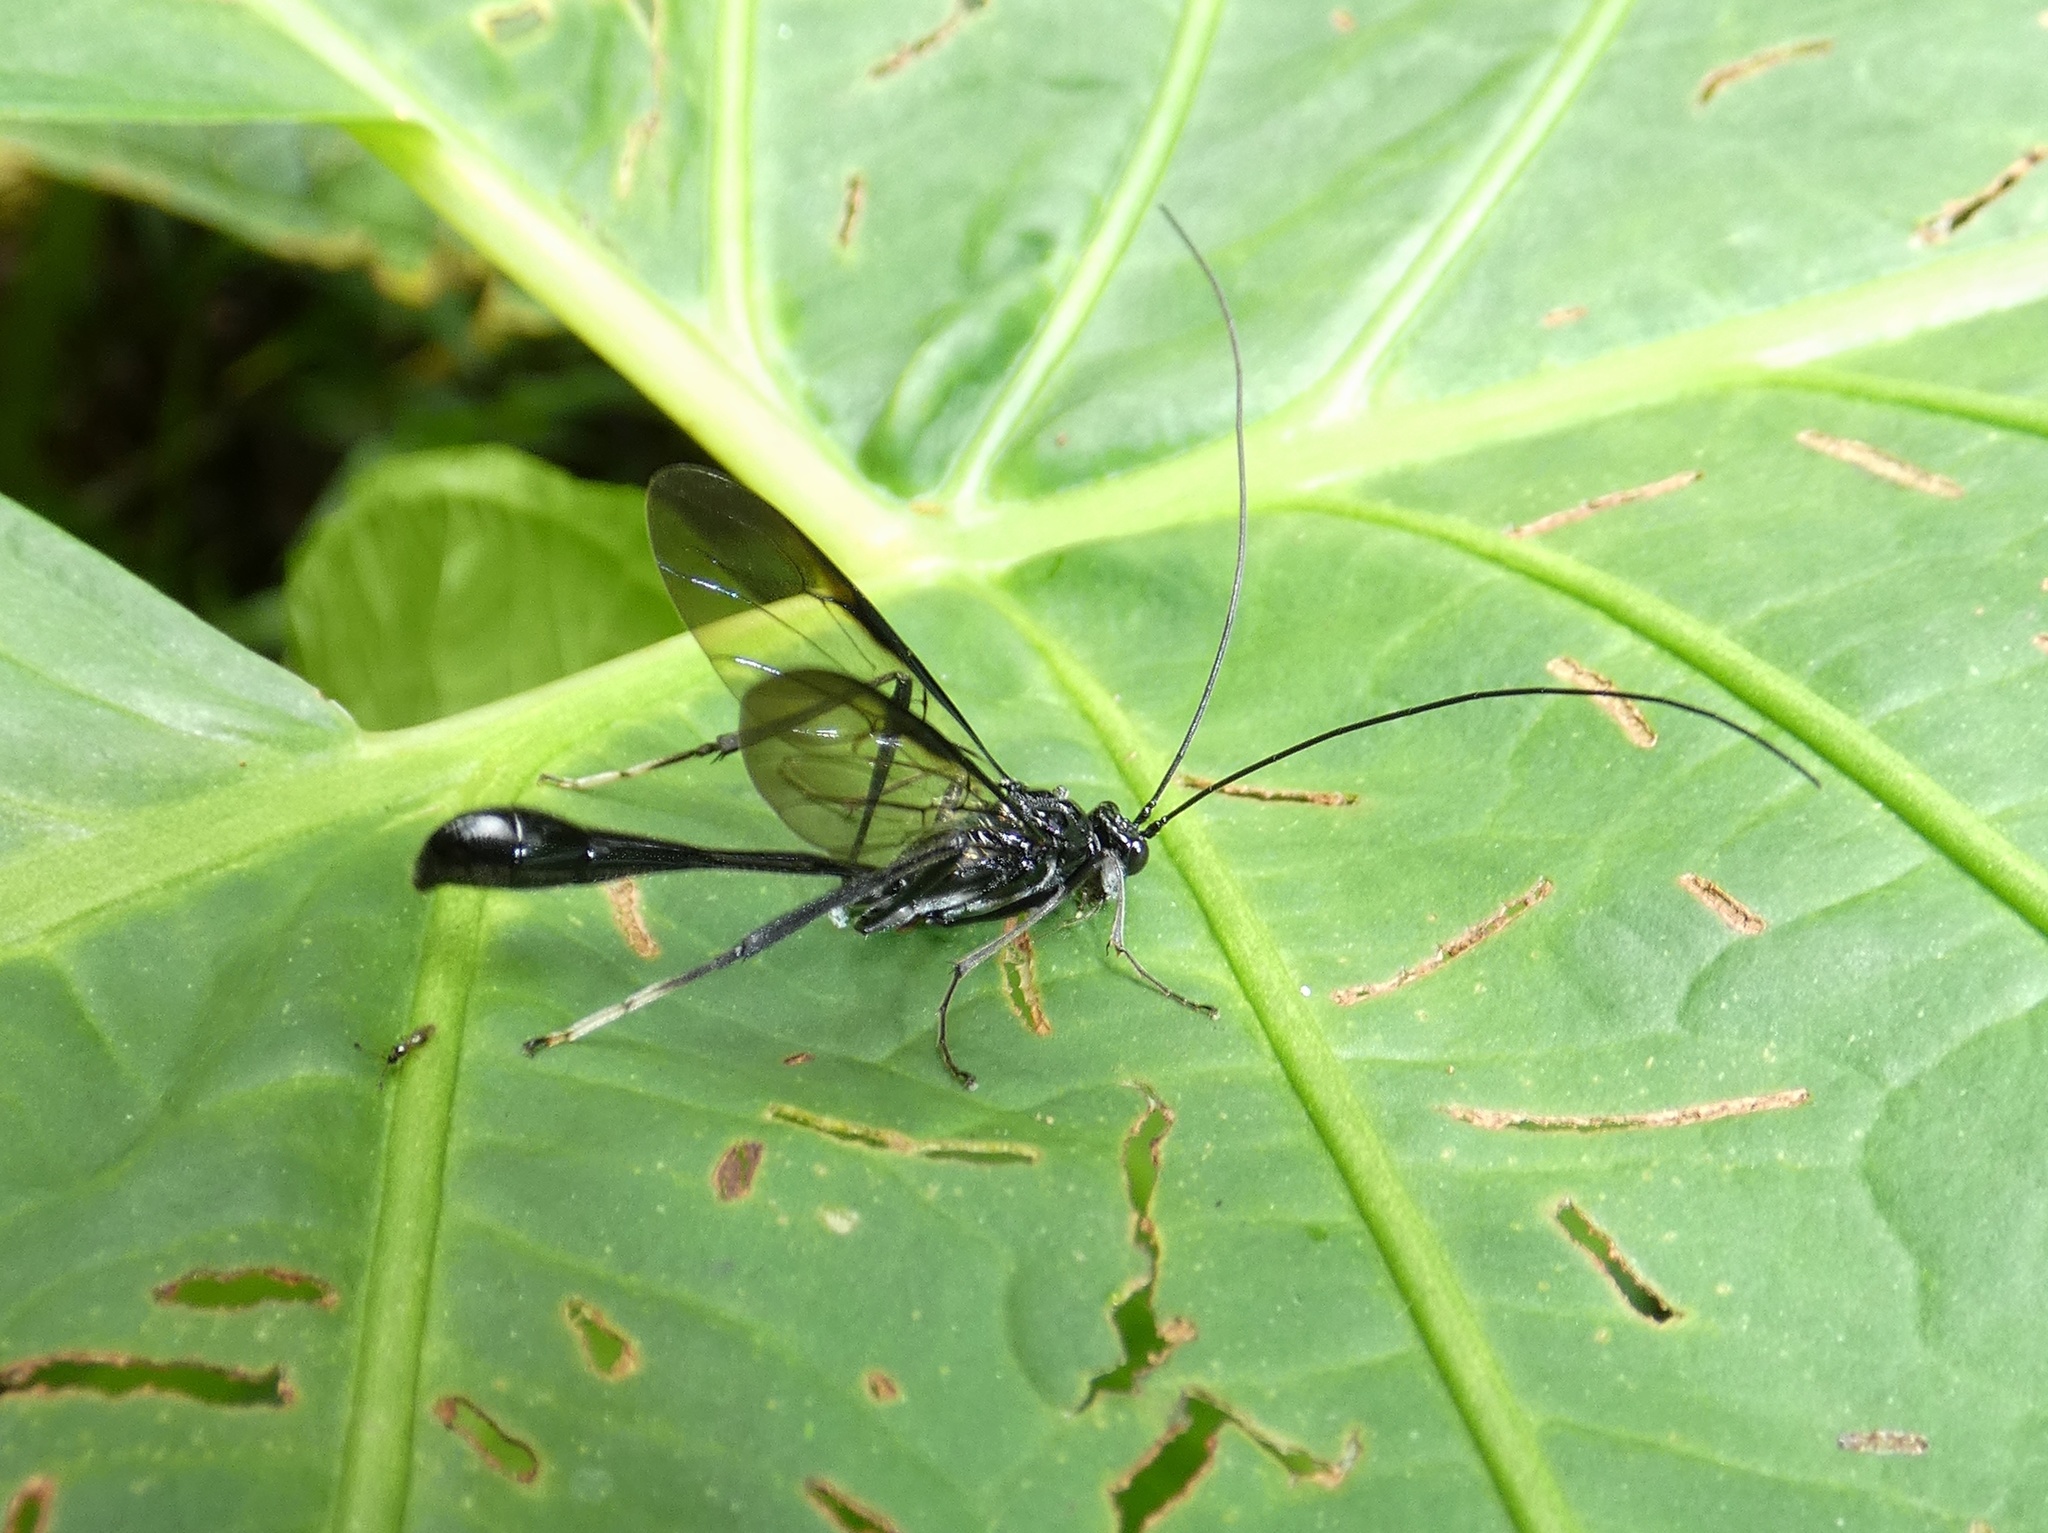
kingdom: Animalia
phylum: Arthropoda
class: Insecta
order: Hymenoptera
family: Pelecinidae
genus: Pelecinus
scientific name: Pelecinus polyturator
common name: American pelecinid wasp
